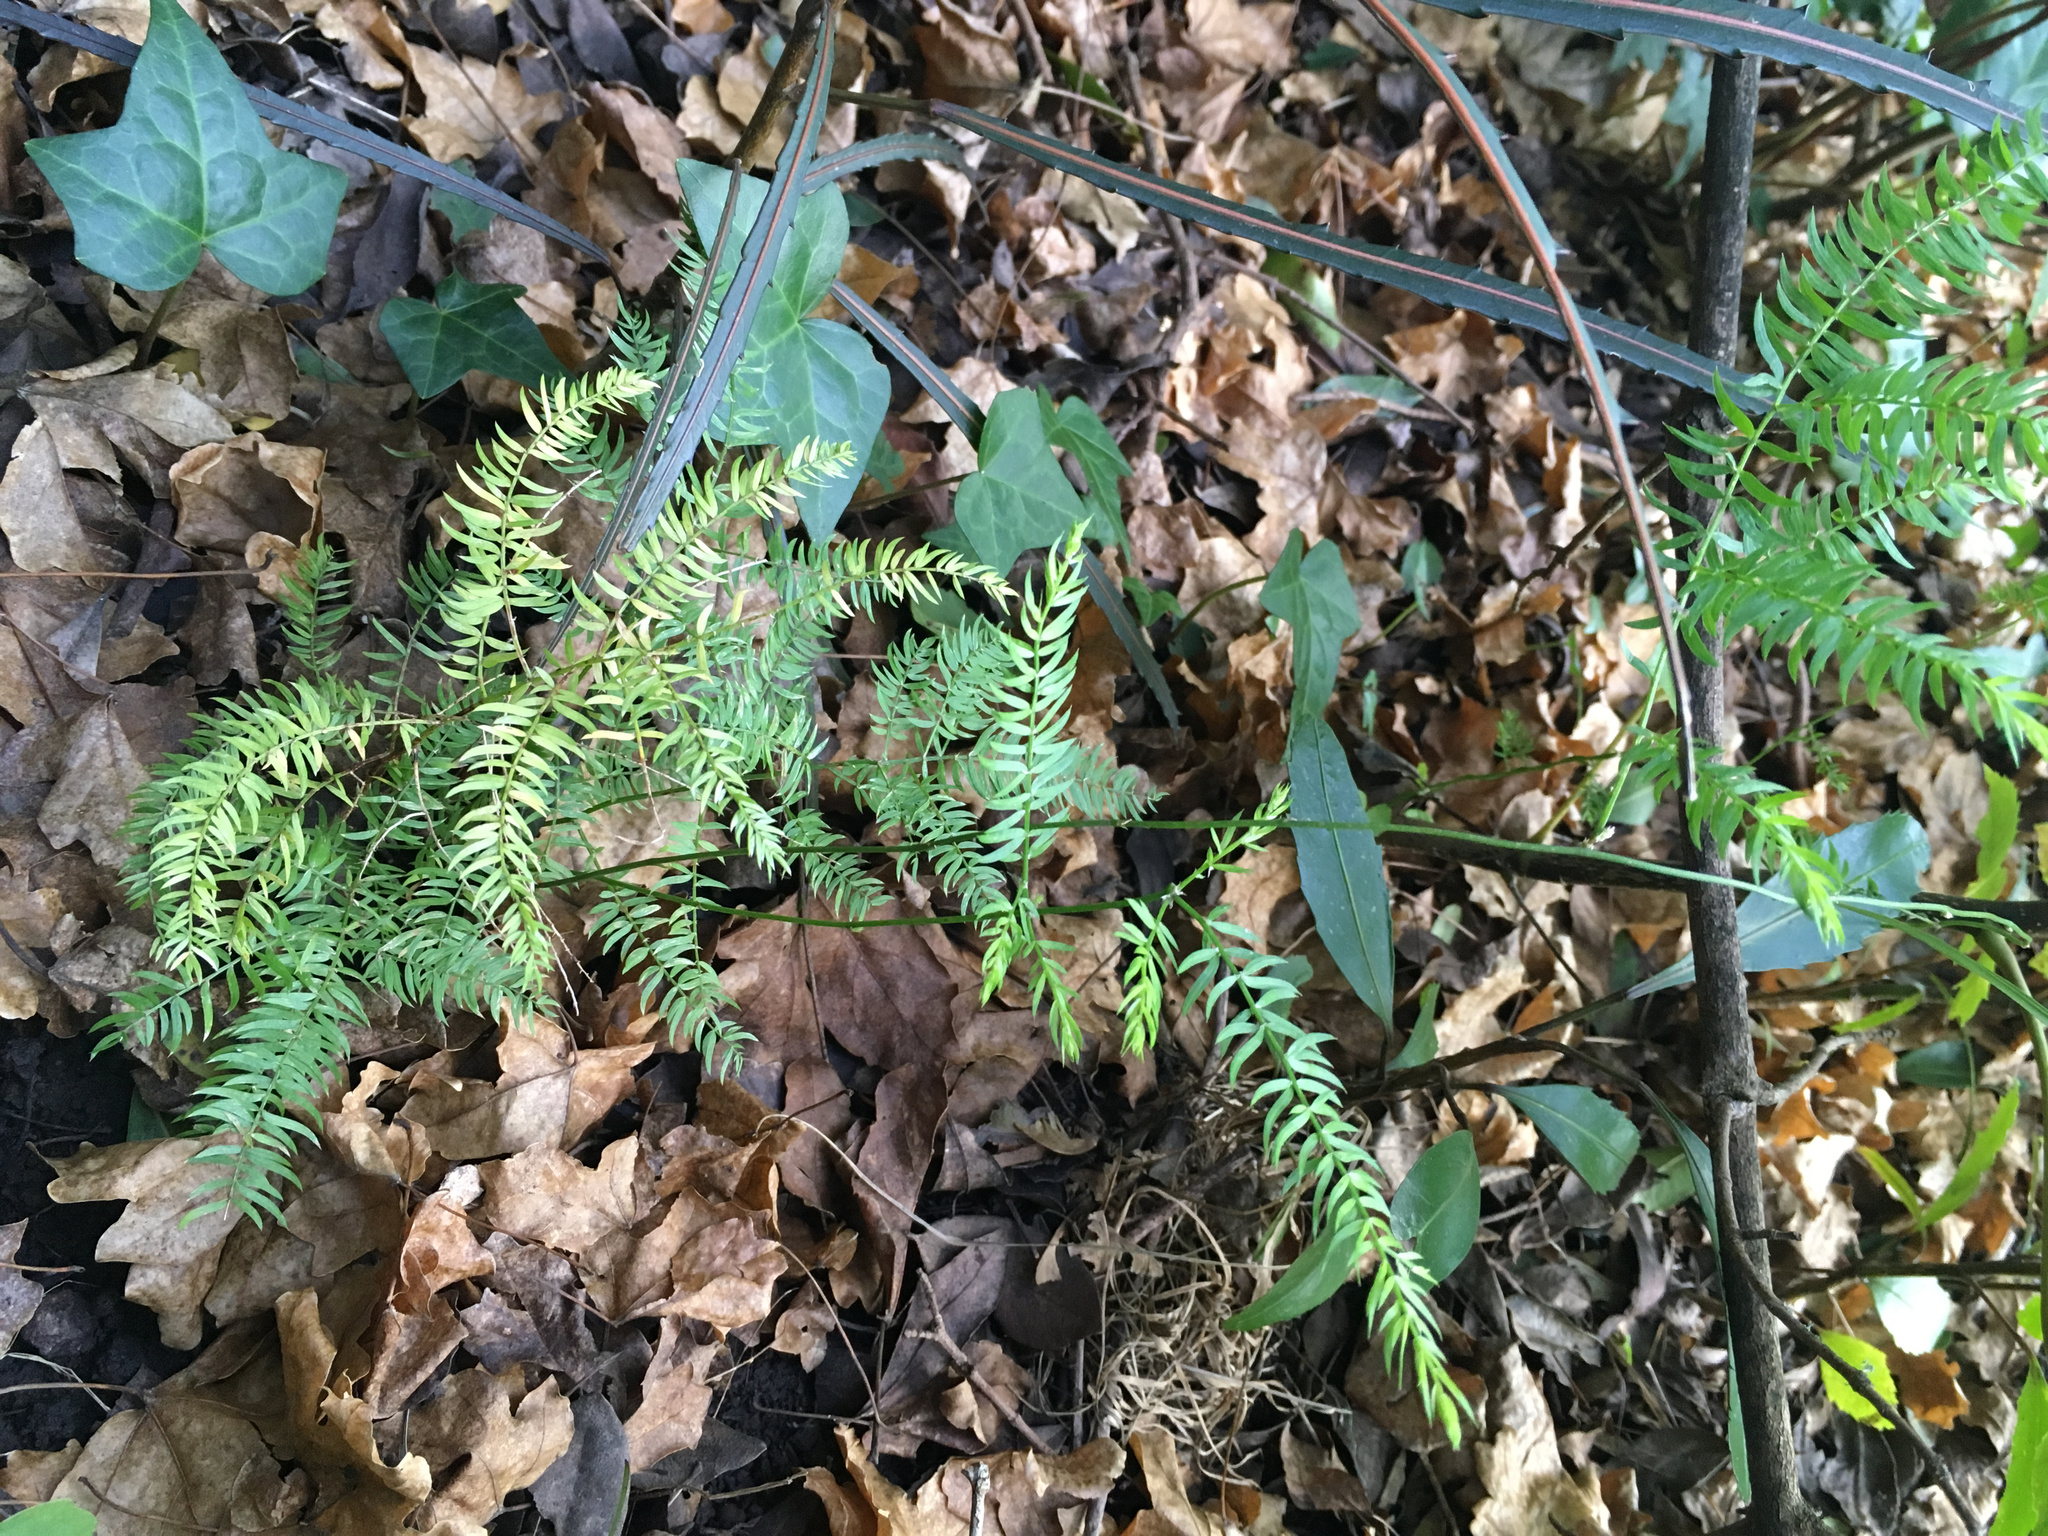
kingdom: Plantae
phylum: Tracheophyta
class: Liliopsida
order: Asparagales
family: Asparagaceae
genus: Asparagus
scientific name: Asparagus scandens
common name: Asparagus-fern
